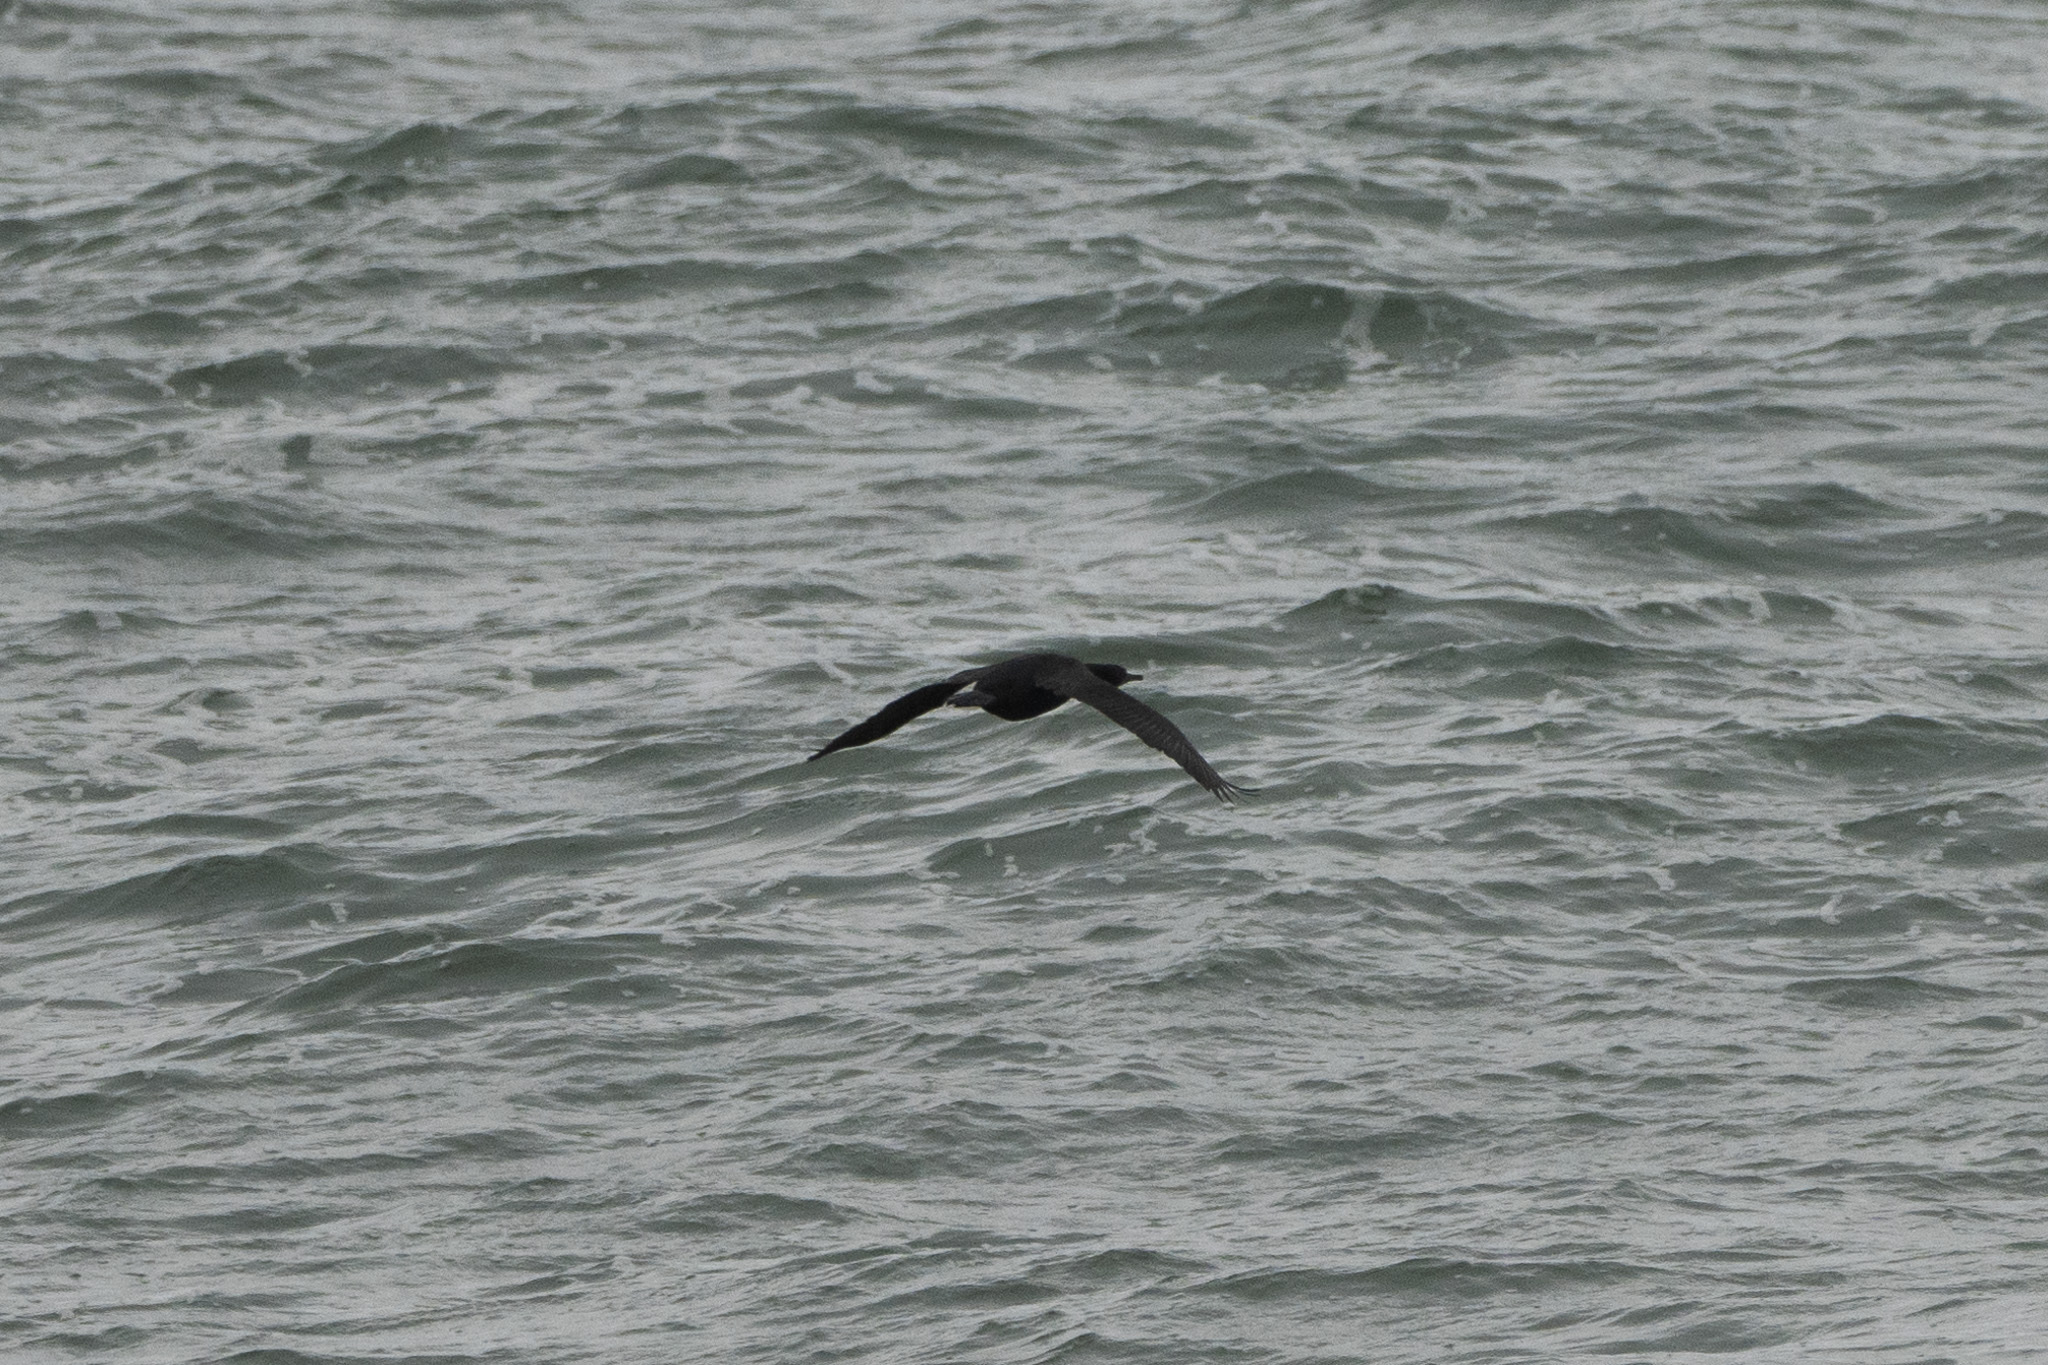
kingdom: Animalia
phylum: Chordata
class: Aves
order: Suliformes
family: Phalacrocoracidae
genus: Urile
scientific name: Urile penicillatus
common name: Brandt's cormorant
